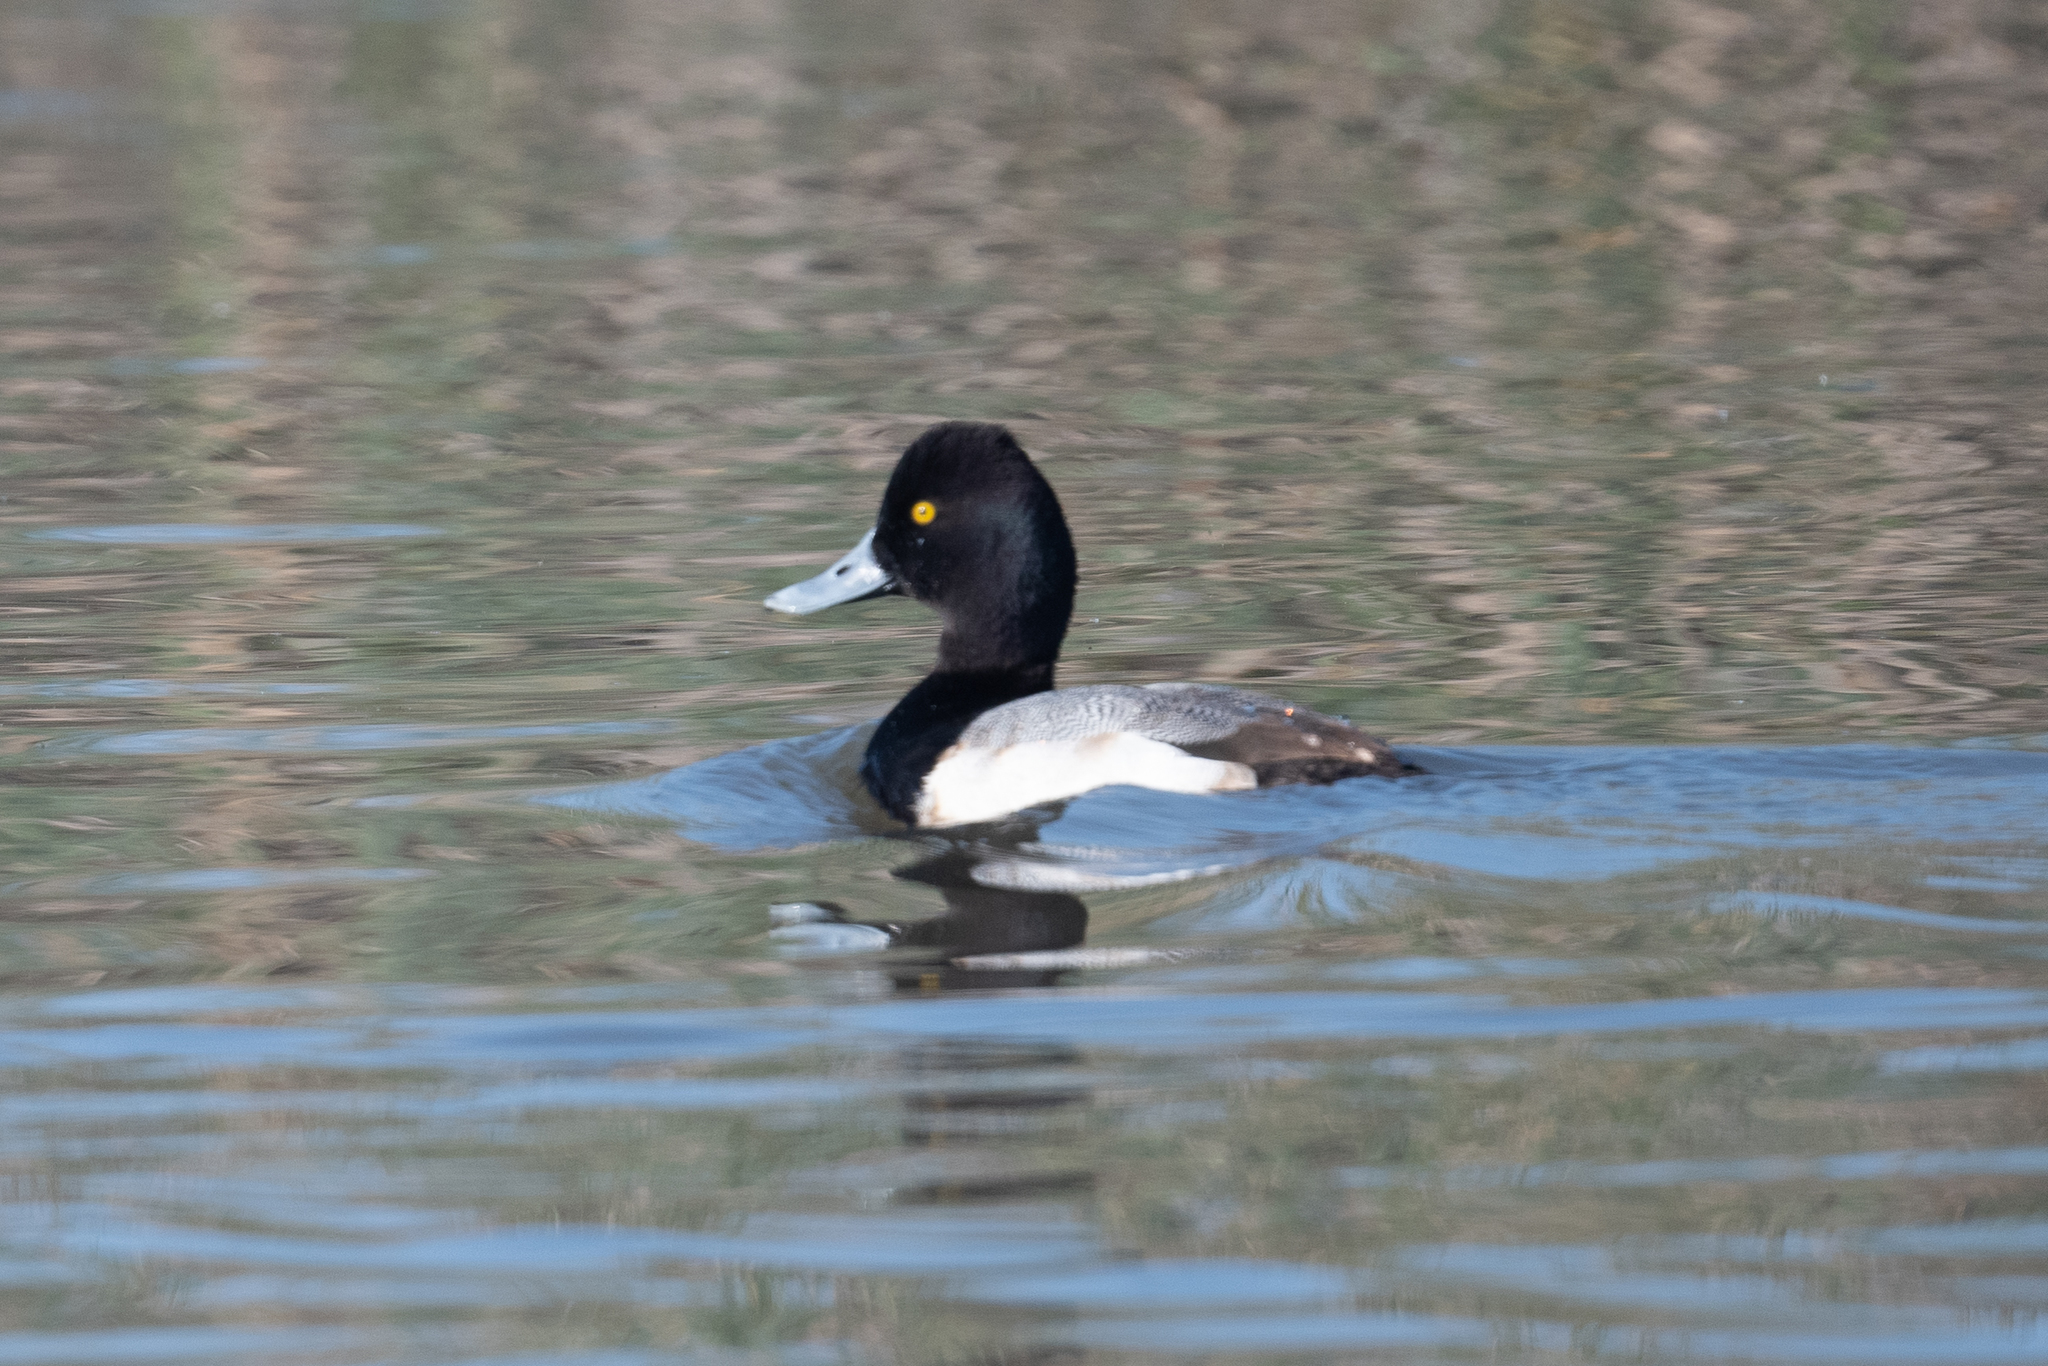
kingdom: Animalia
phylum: Chordata
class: Aves
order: Anseriformes
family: Anatidae
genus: Aythya
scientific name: Aythya affinis
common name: Lesser scaup
